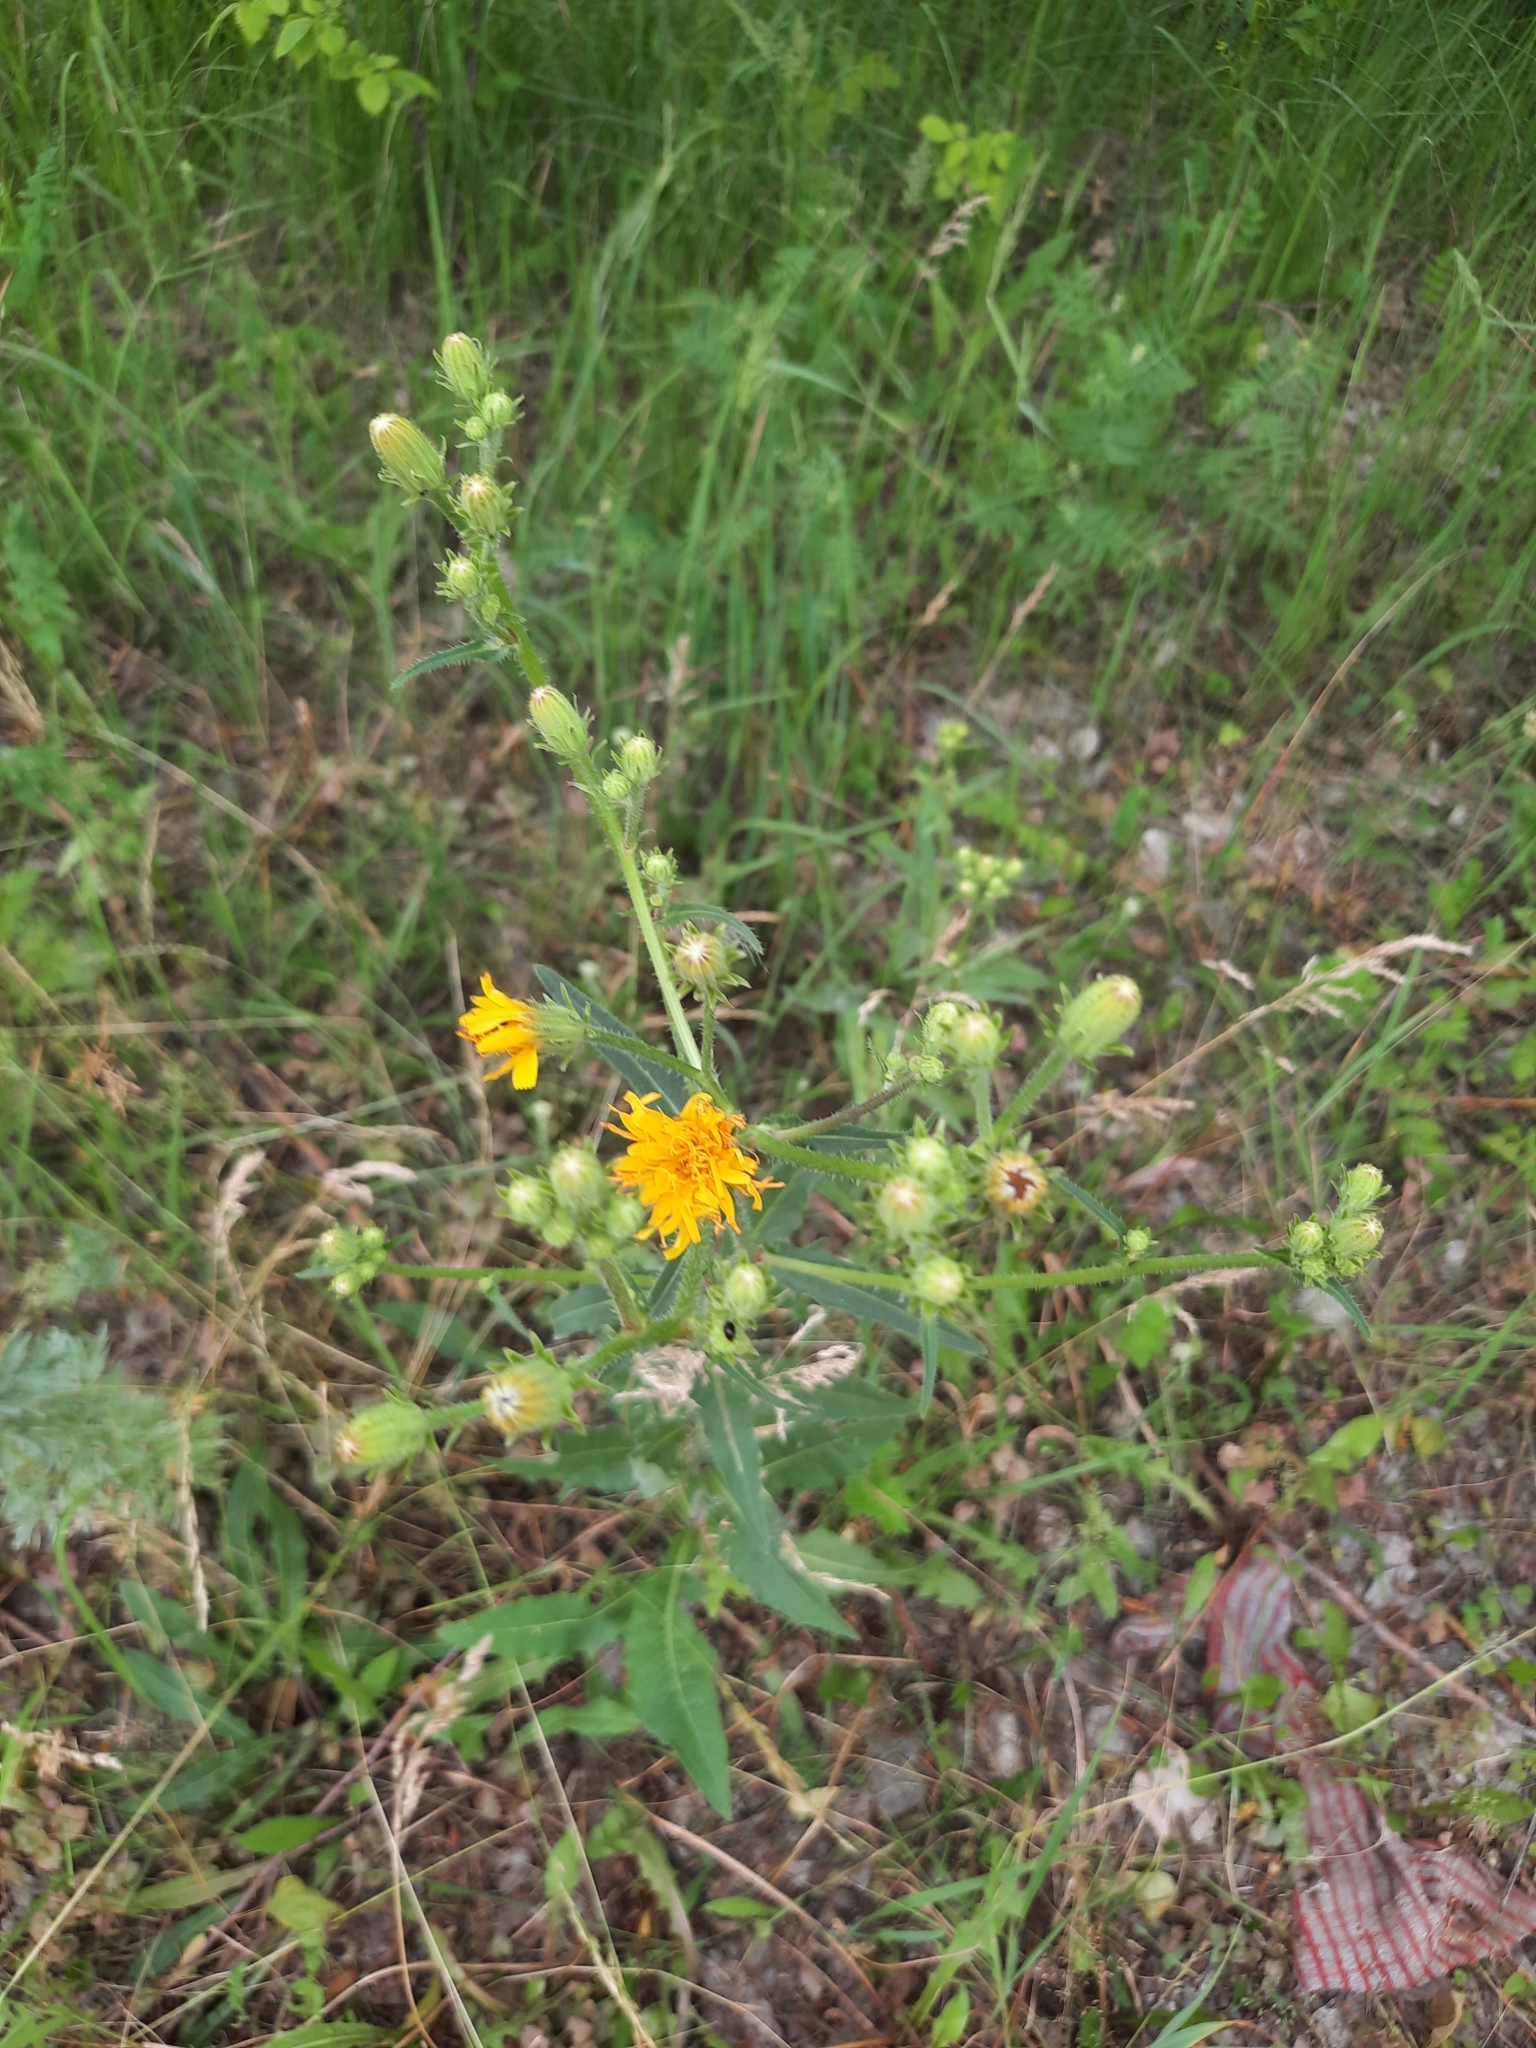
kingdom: Plantae
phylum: Tracheophyta
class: Magnoliopsida
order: Asterales
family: Asteraceae
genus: Picris
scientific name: Picris hieracioides
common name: Hawkweed oxtongue
